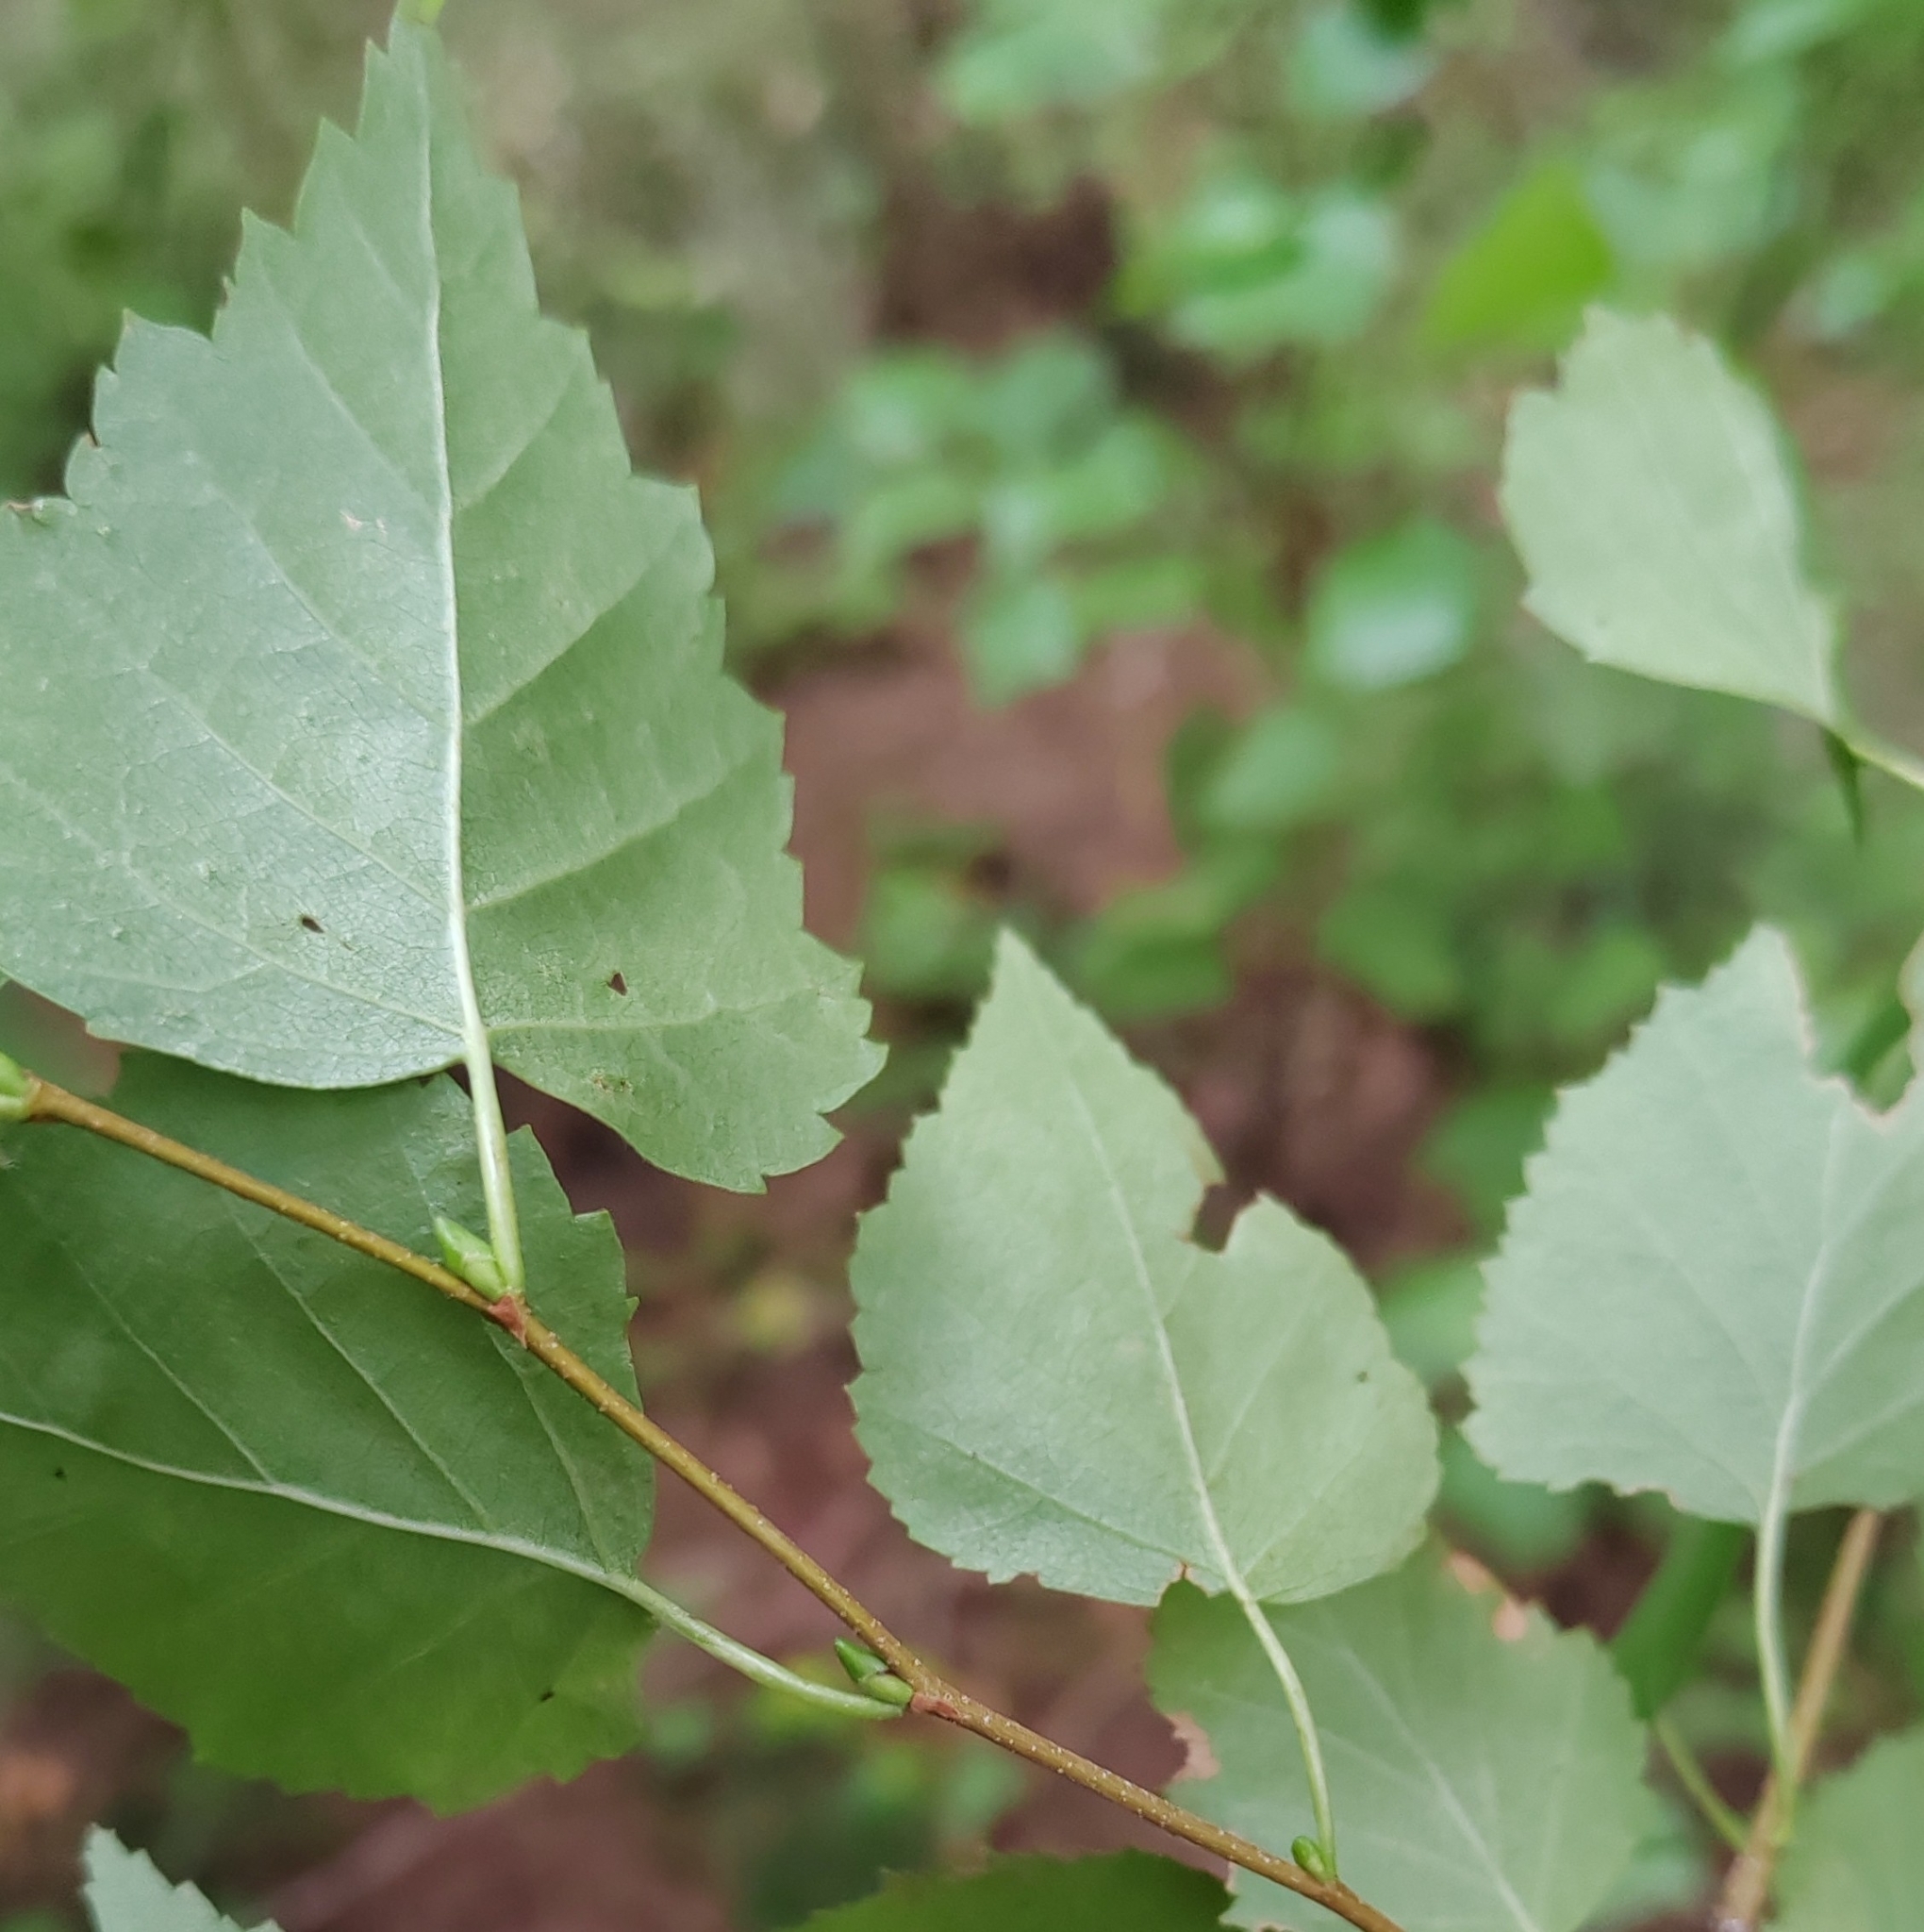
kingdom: Plantae
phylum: Tracheophyta
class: Magnoliopsida
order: Fagales
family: Betulaceae
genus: Betula
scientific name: Betula pendula
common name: Silver birch
